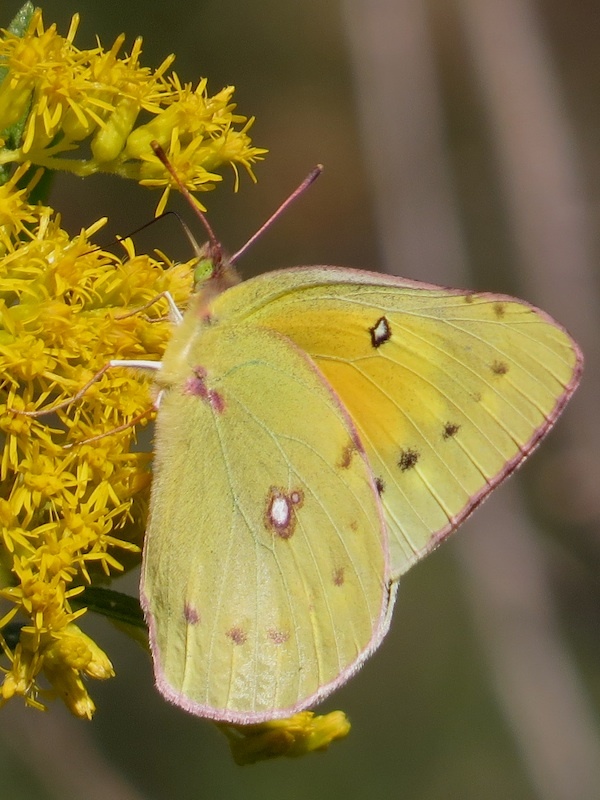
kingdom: Animalia
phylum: Arthropoda
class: Insecta
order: Lepidoptera
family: Pieridae
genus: Colias
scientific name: Colias eurytheme
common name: Alfalfa butterfly
